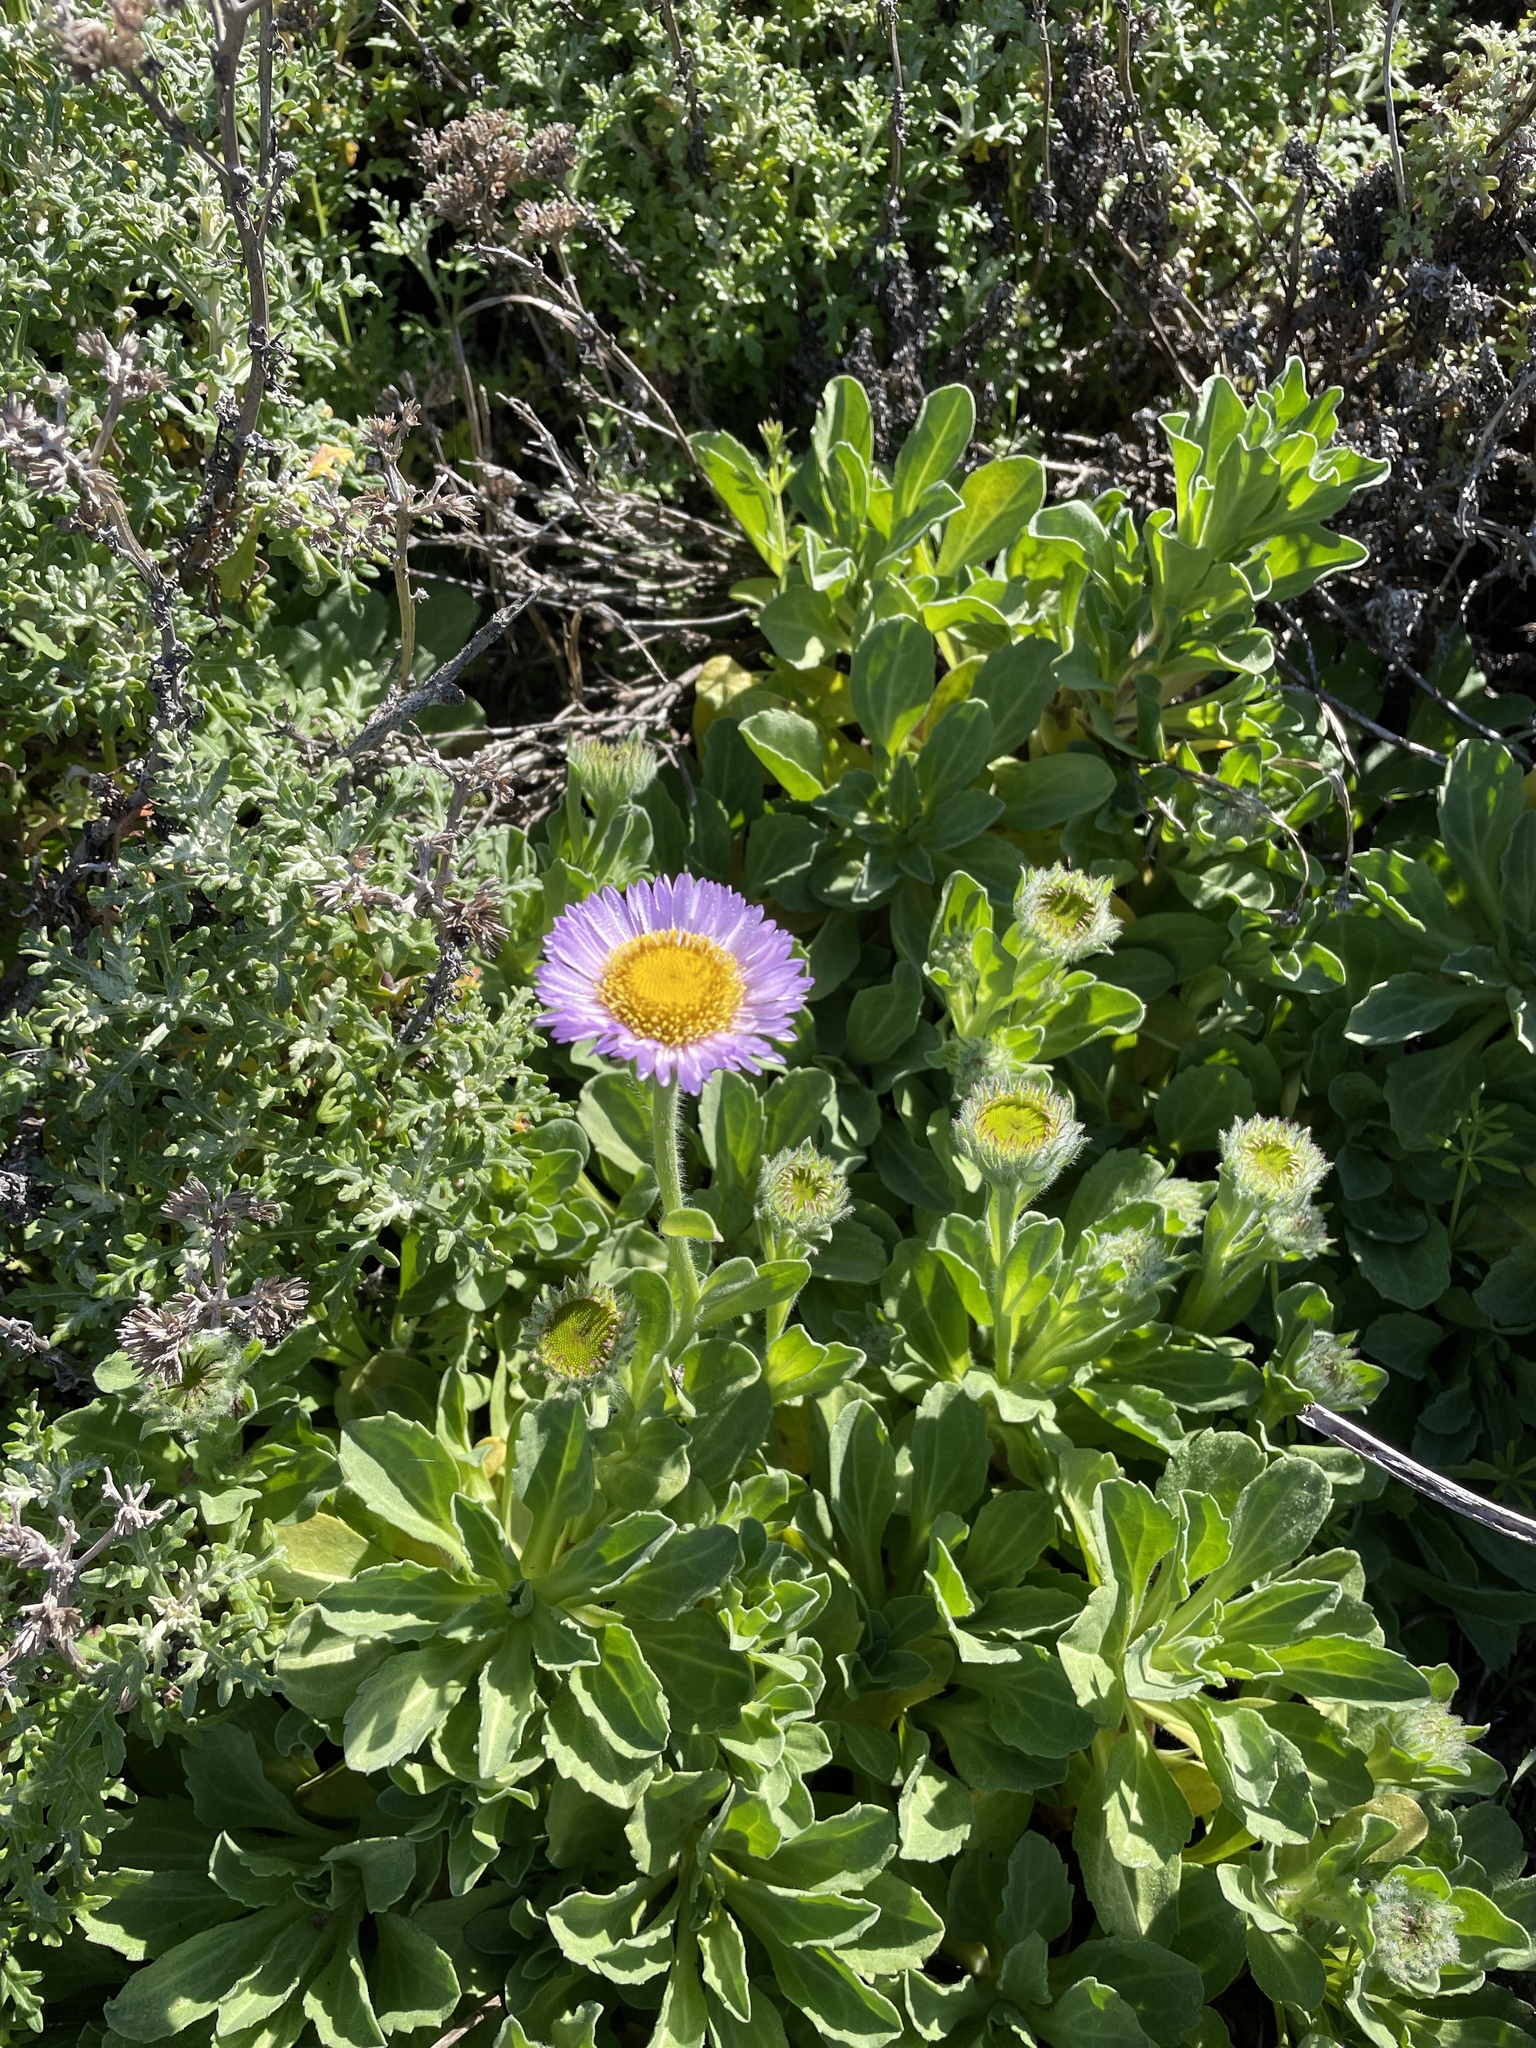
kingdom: Plantae
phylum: Tracheophyta
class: Magnoliopsida
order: Asterales
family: Asteraceae
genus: Erigeron
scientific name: Erigeron glaucus
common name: Seaside daisy
